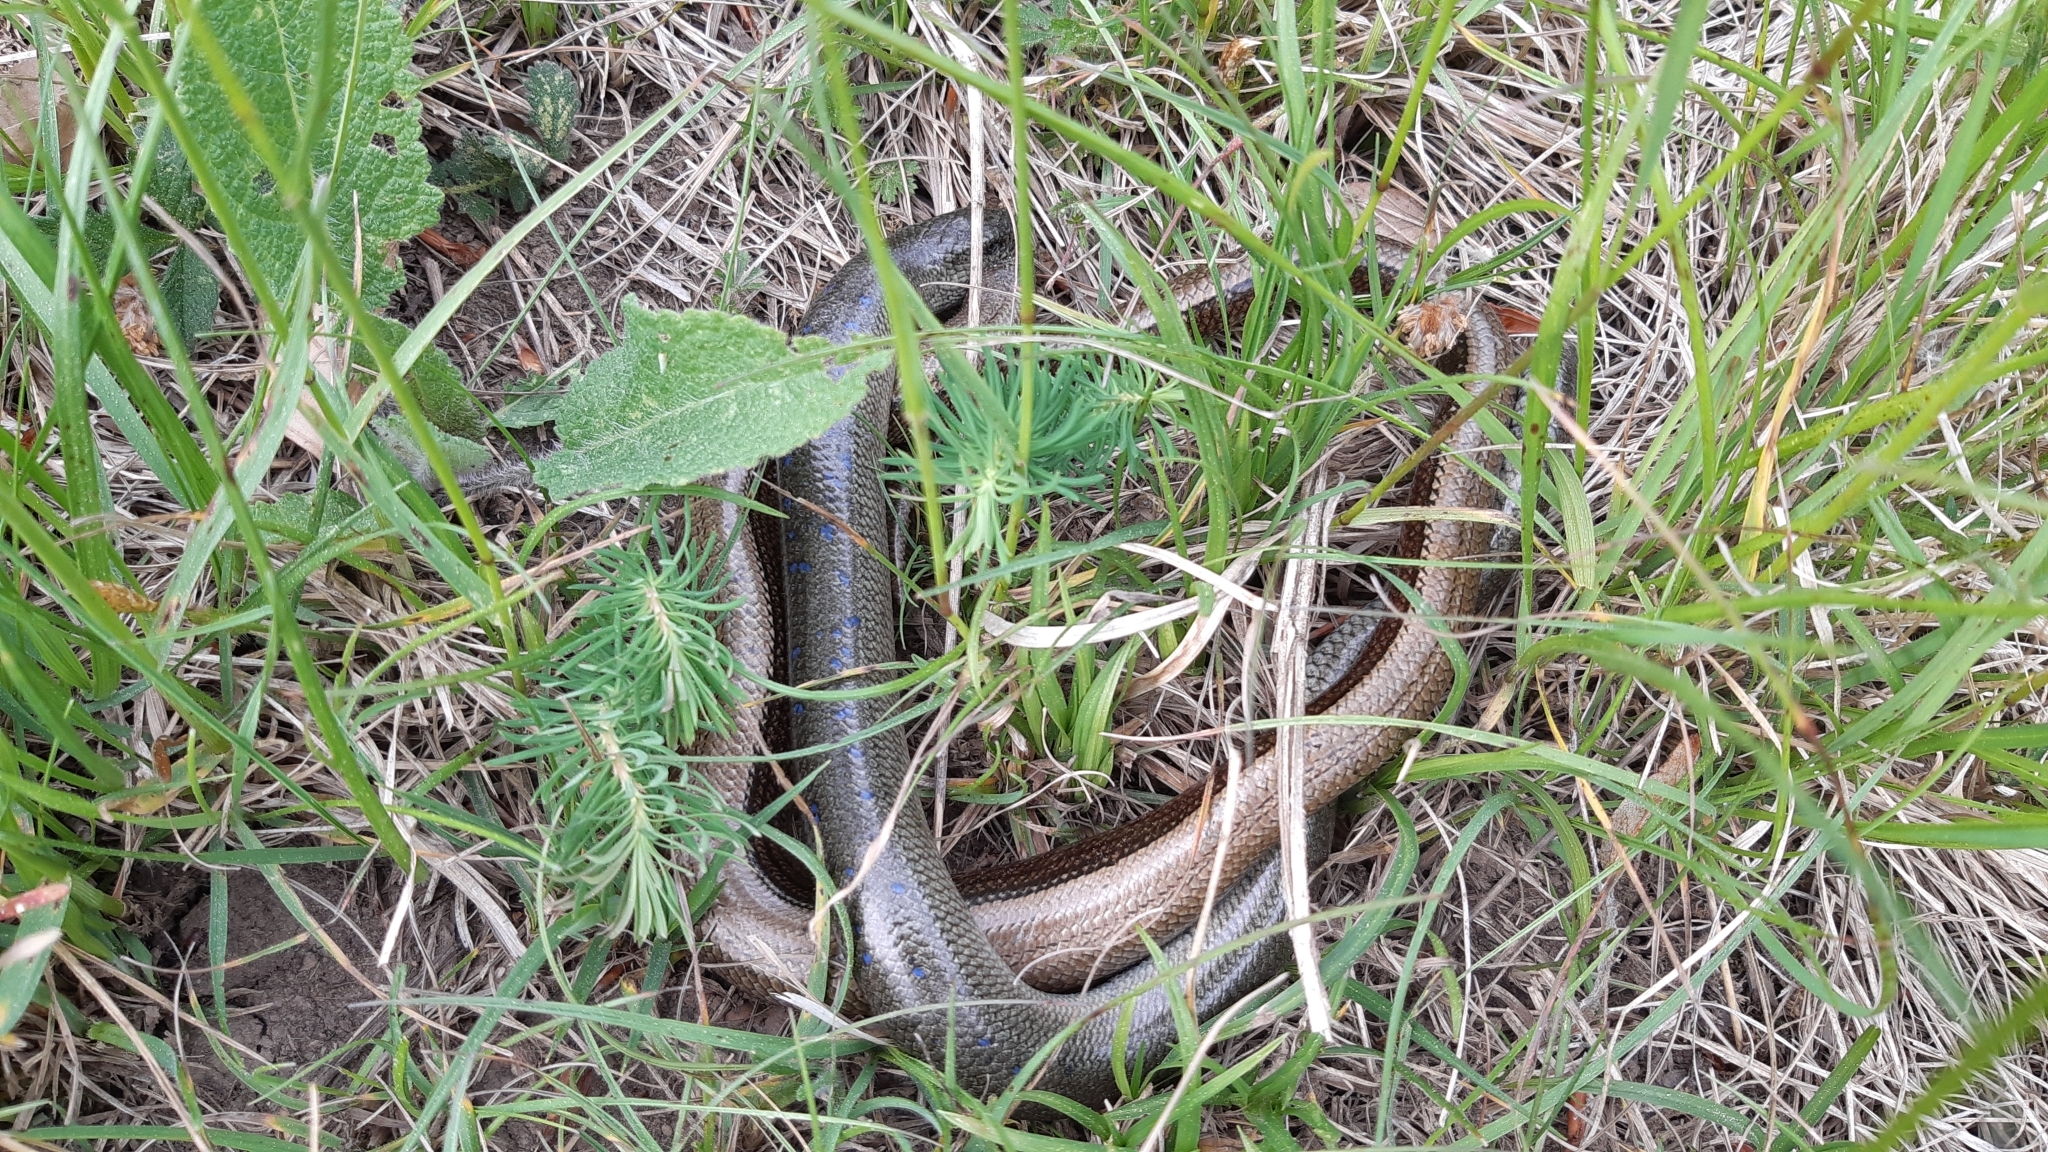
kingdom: Animalia
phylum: Chordata
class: Squamata
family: Anguidae
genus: Anguis
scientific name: Anguis colchica
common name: Slow worm
